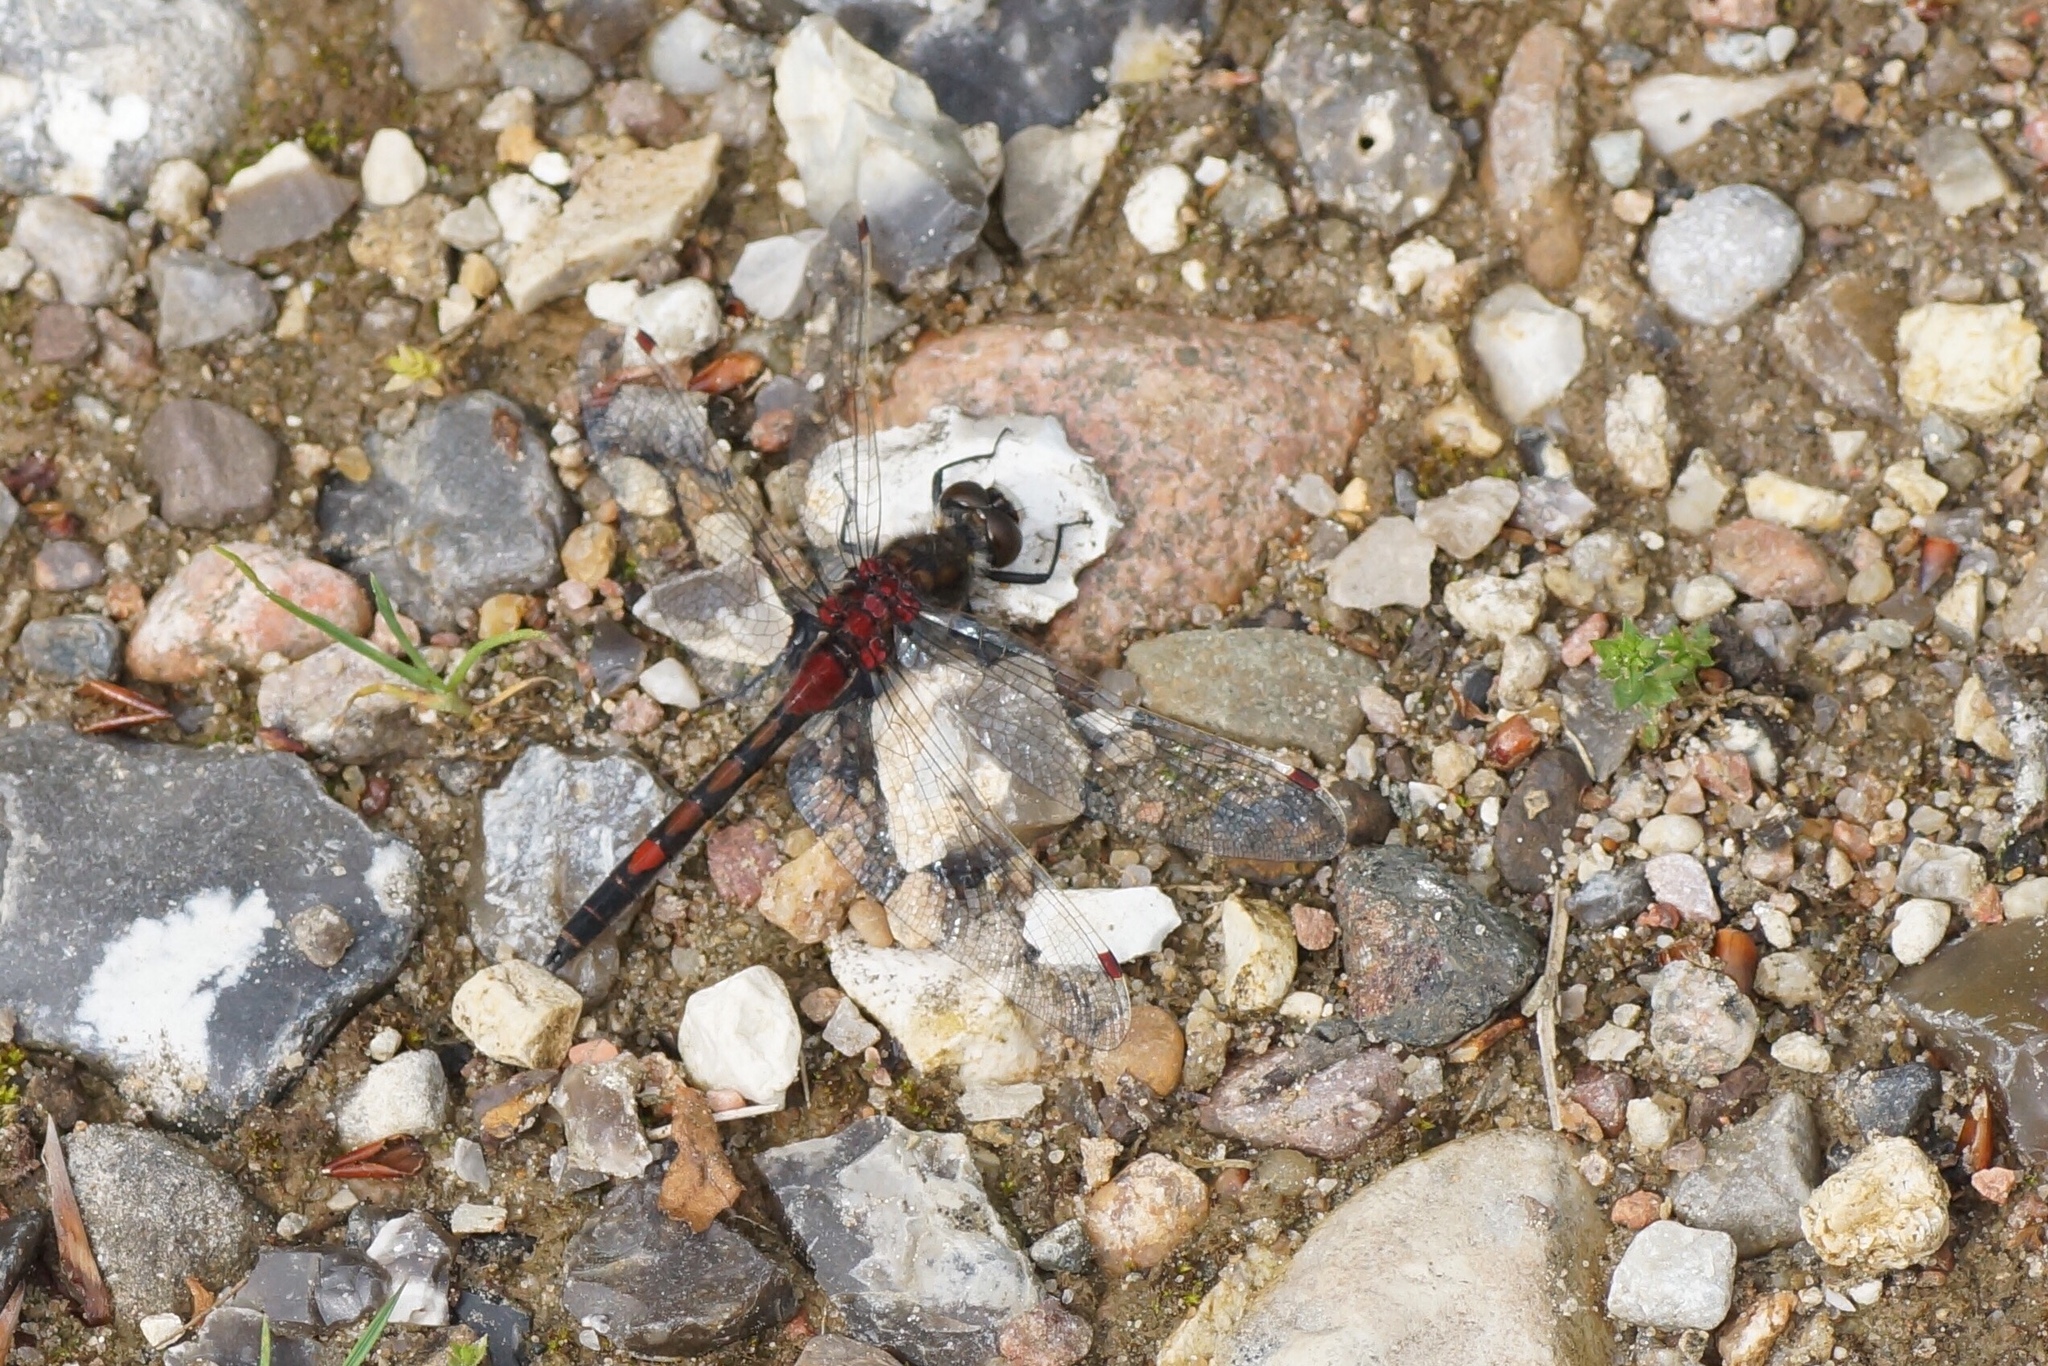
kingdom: Animalia
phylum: Arthropoda
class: Insecta
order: Odonata
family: Libellulidae
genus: Leucorrhinia
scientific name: Leucorrhinia rubicunda
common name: Ruby whiteface
